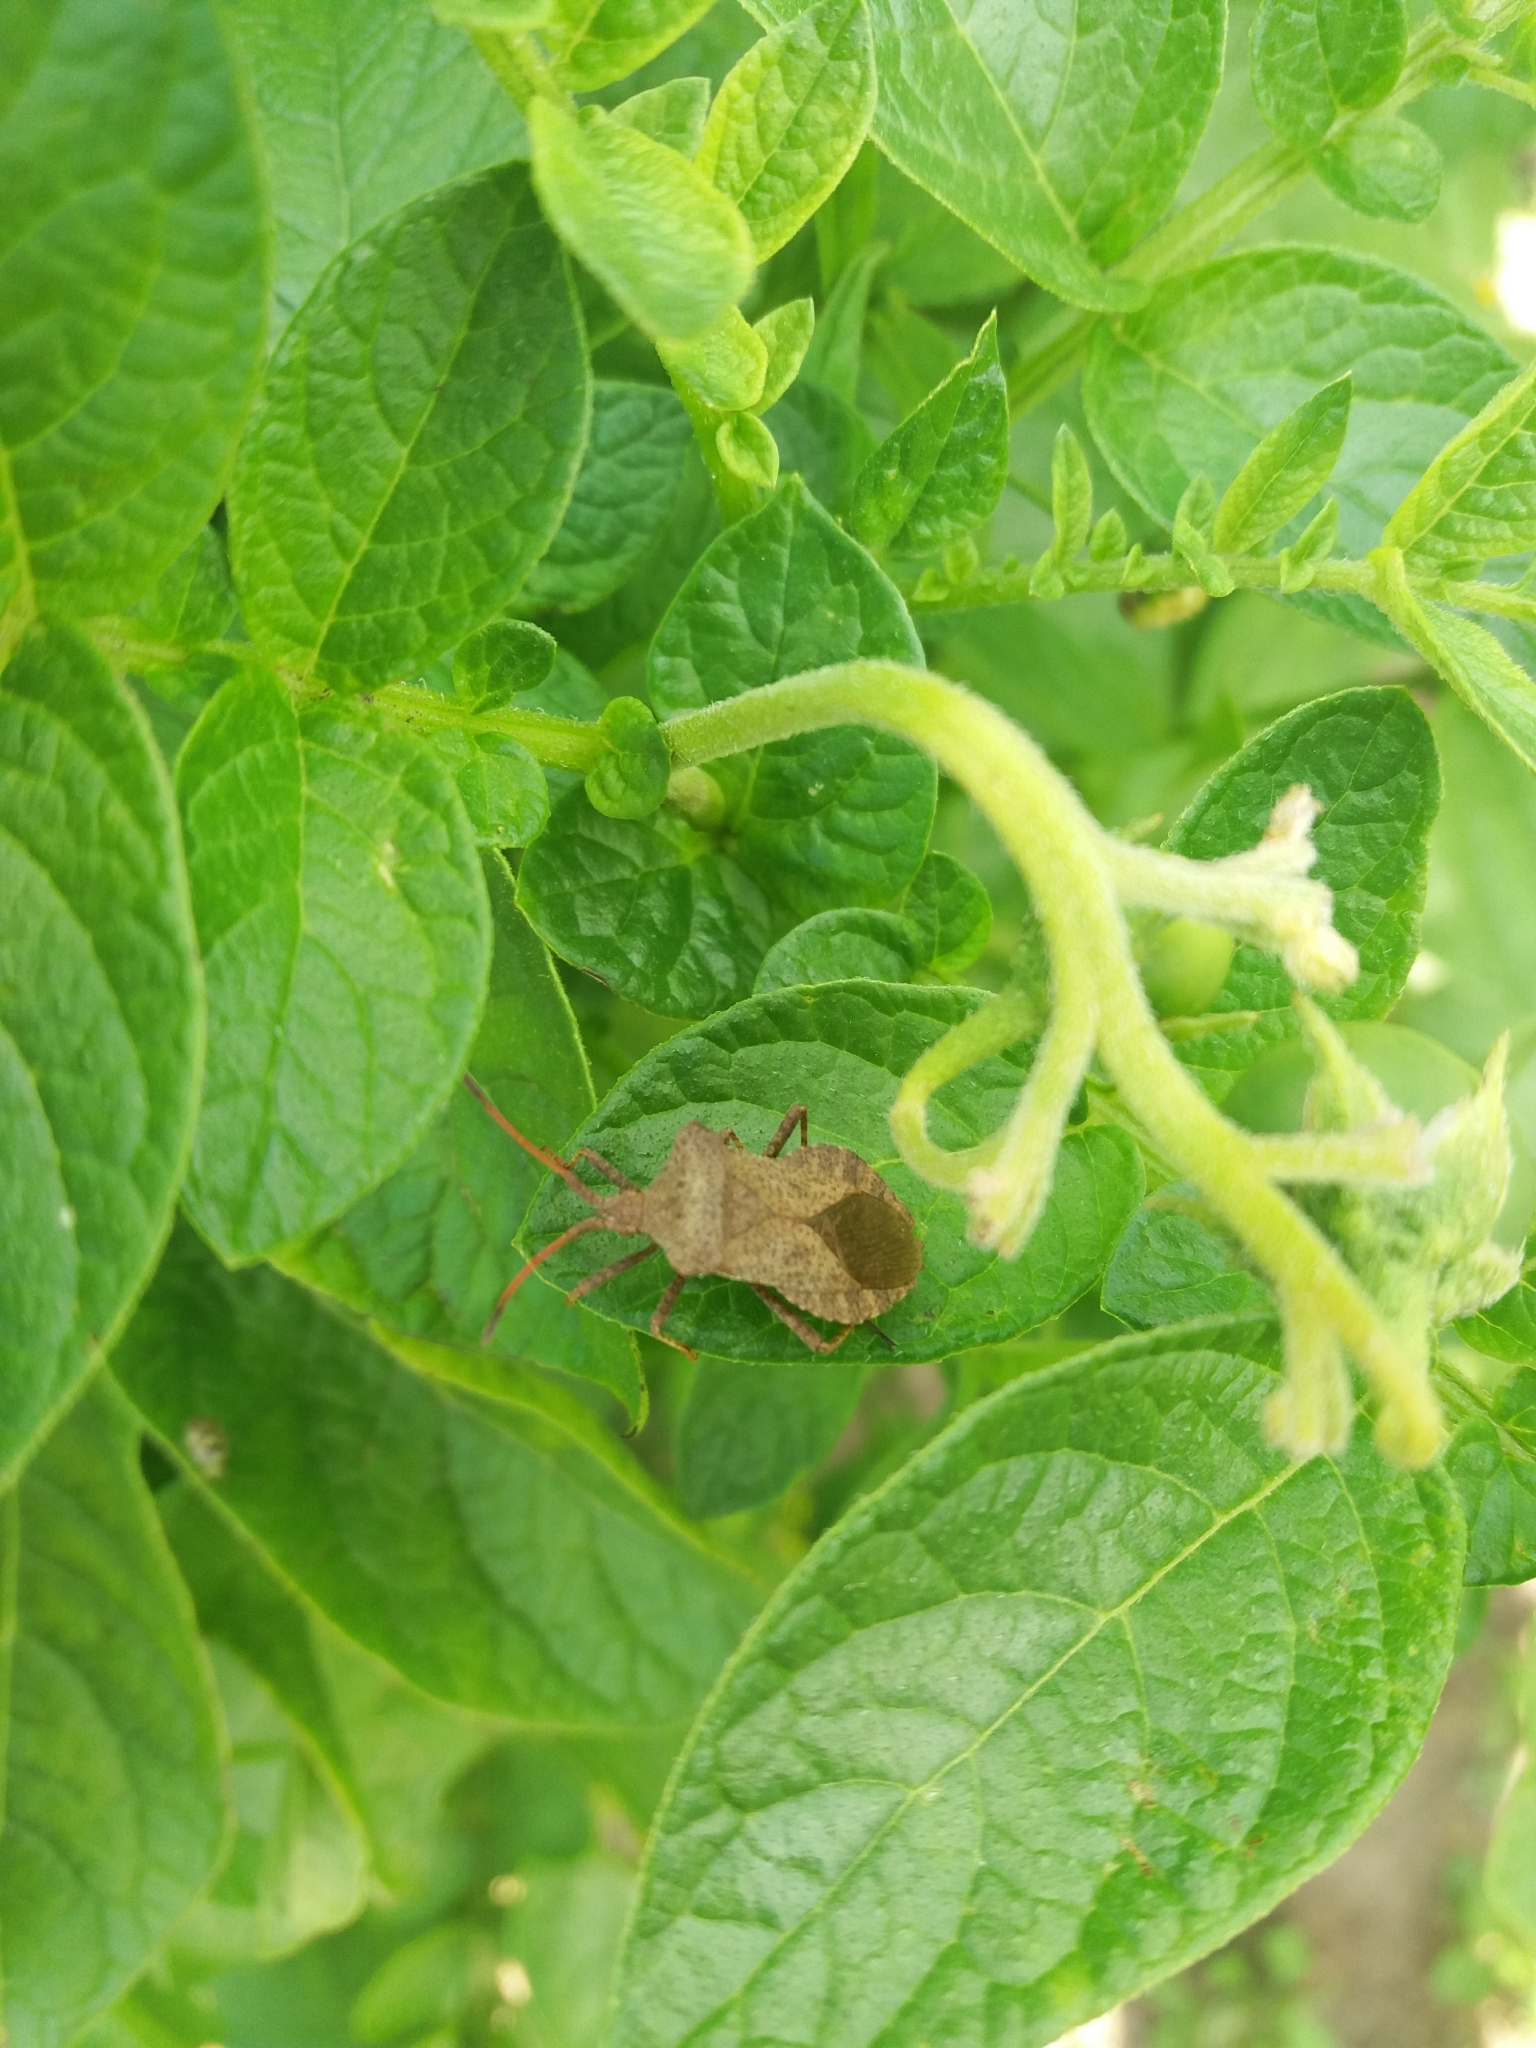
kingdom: Animalia
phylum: Arthropoda
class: Insecta
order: Hemiptera
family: Coreidae
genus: Coreus
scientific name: Coreus marginatus
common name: Dock bug
